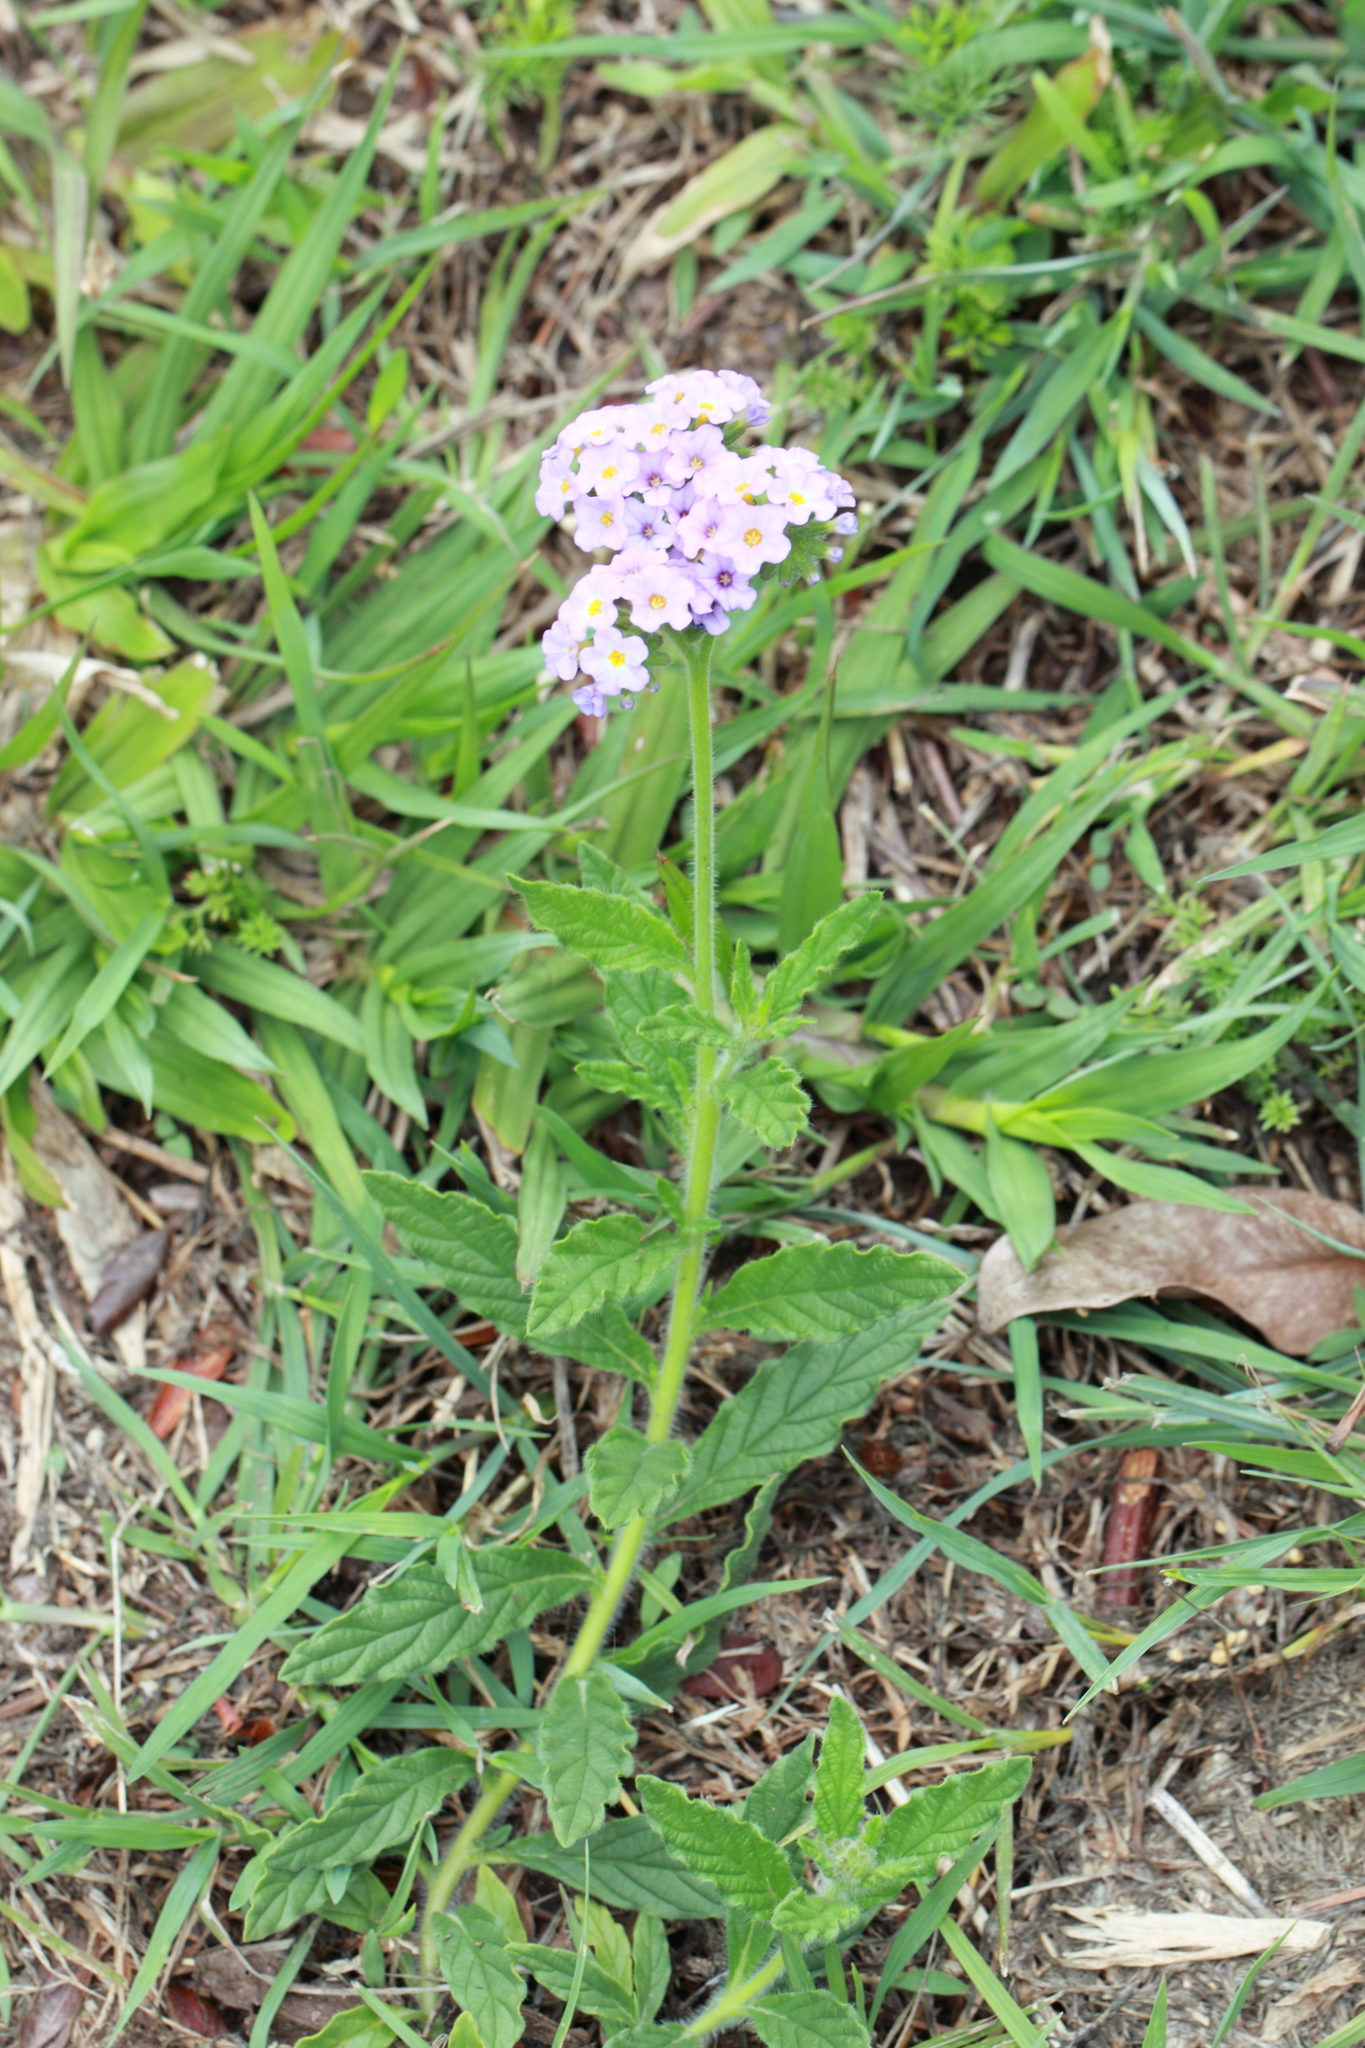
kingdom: Plantae
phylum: Tracheophyta
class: Magnoliopsida
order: Boraginales
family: Heliotropiaceae
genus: Heliotropium
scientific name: Heliotropium amplexicaule
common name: Clasping heliotrope
